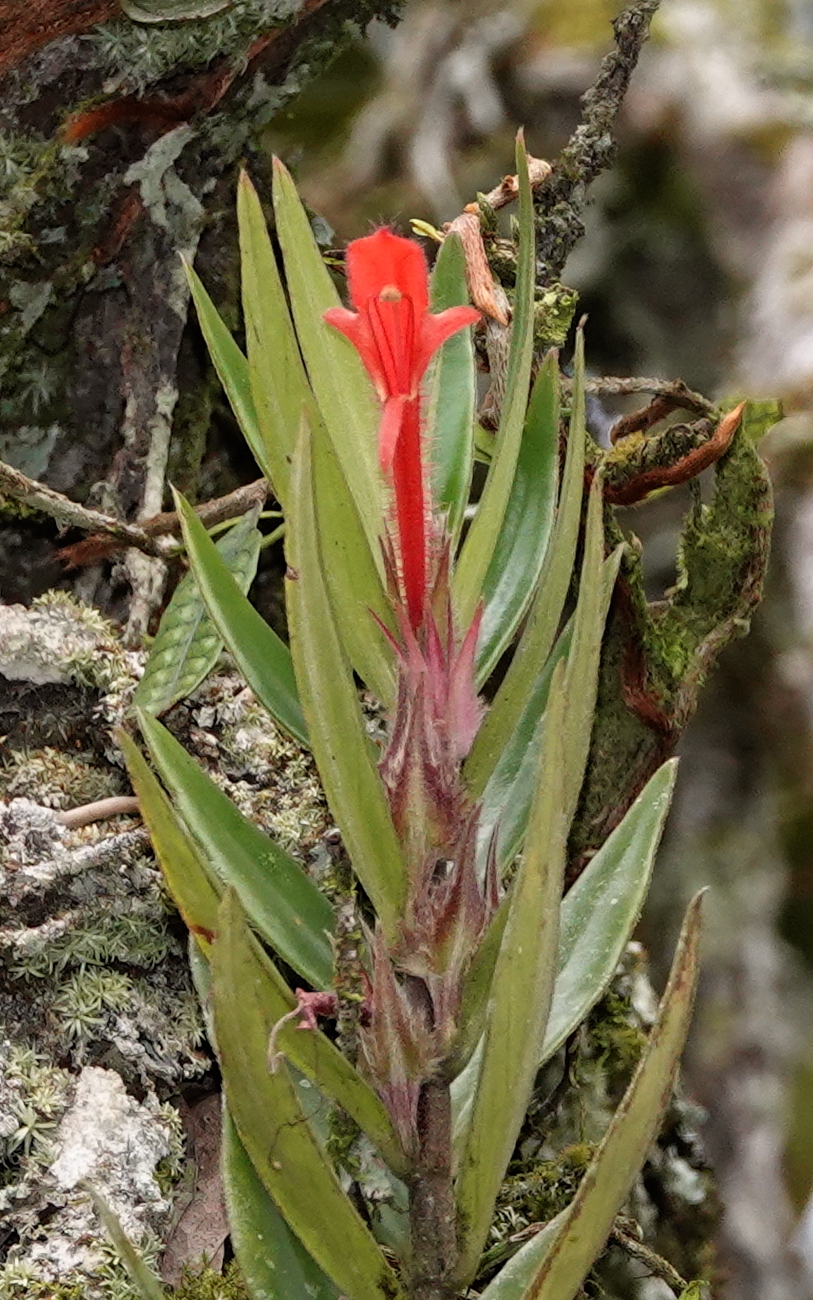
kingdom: Plantae
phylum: Tracheophyta
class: Magnoliopsida
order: Lamiales
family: Gesneriaceae
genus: Columnea
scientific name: Columnea bilabiata
